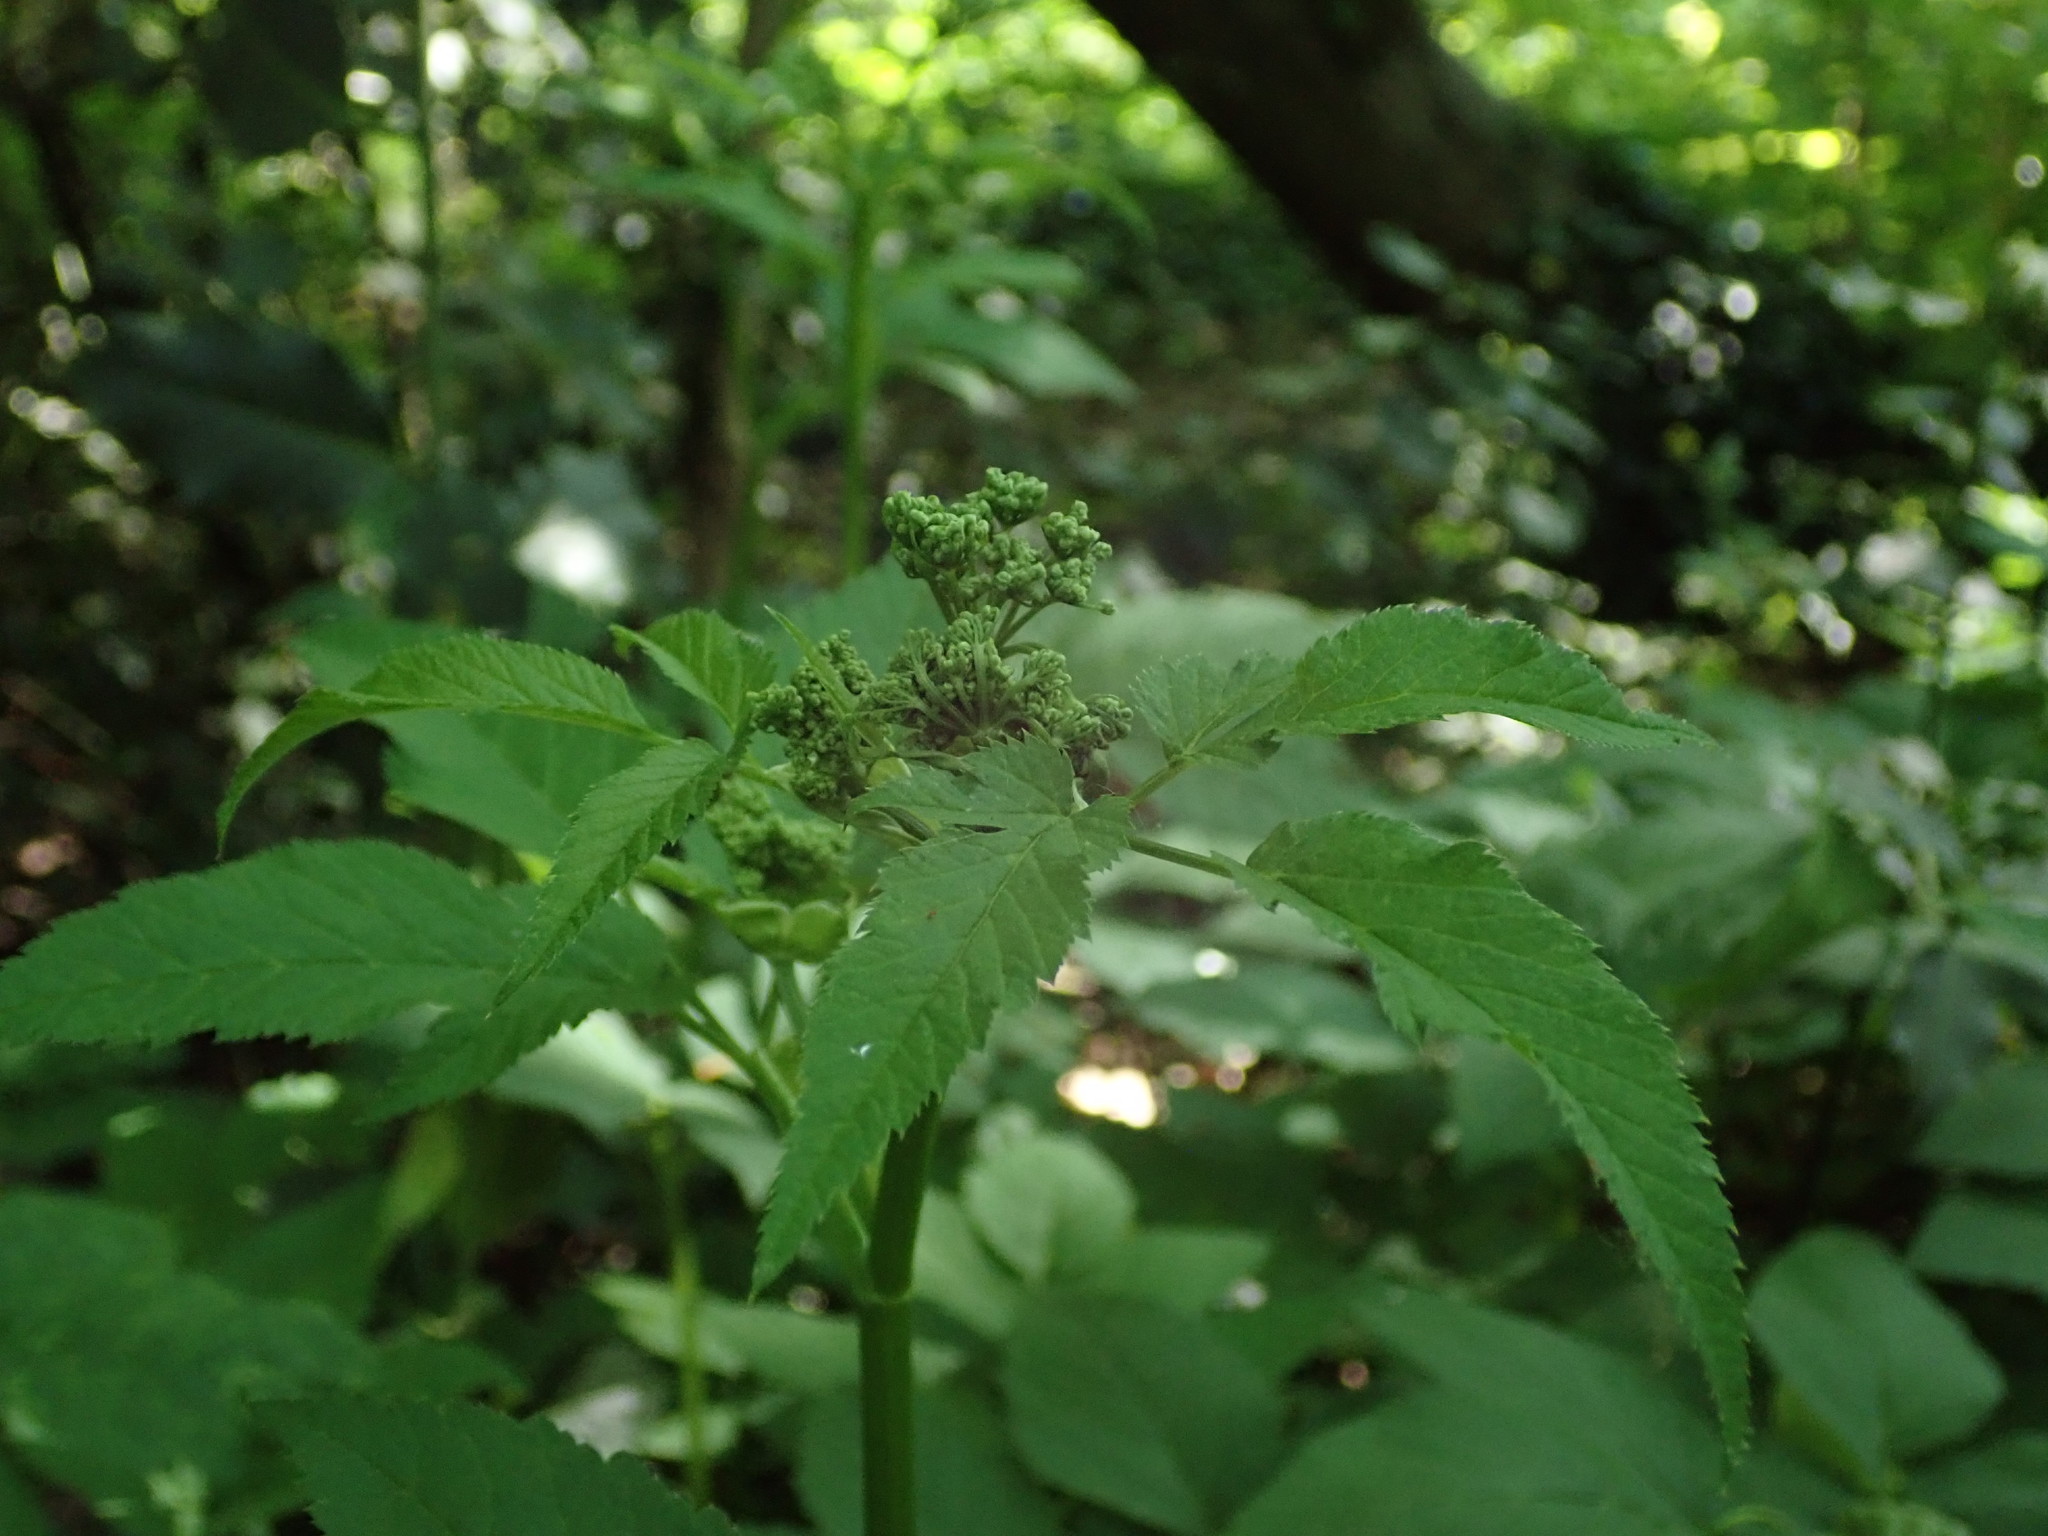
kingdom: Plantae
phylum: Tracheophyta
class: Magnoliopsida
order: Apiales
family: Apiaceae
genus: Aegopodium
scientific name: Aegopodium podagraria
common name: Ground-elder
